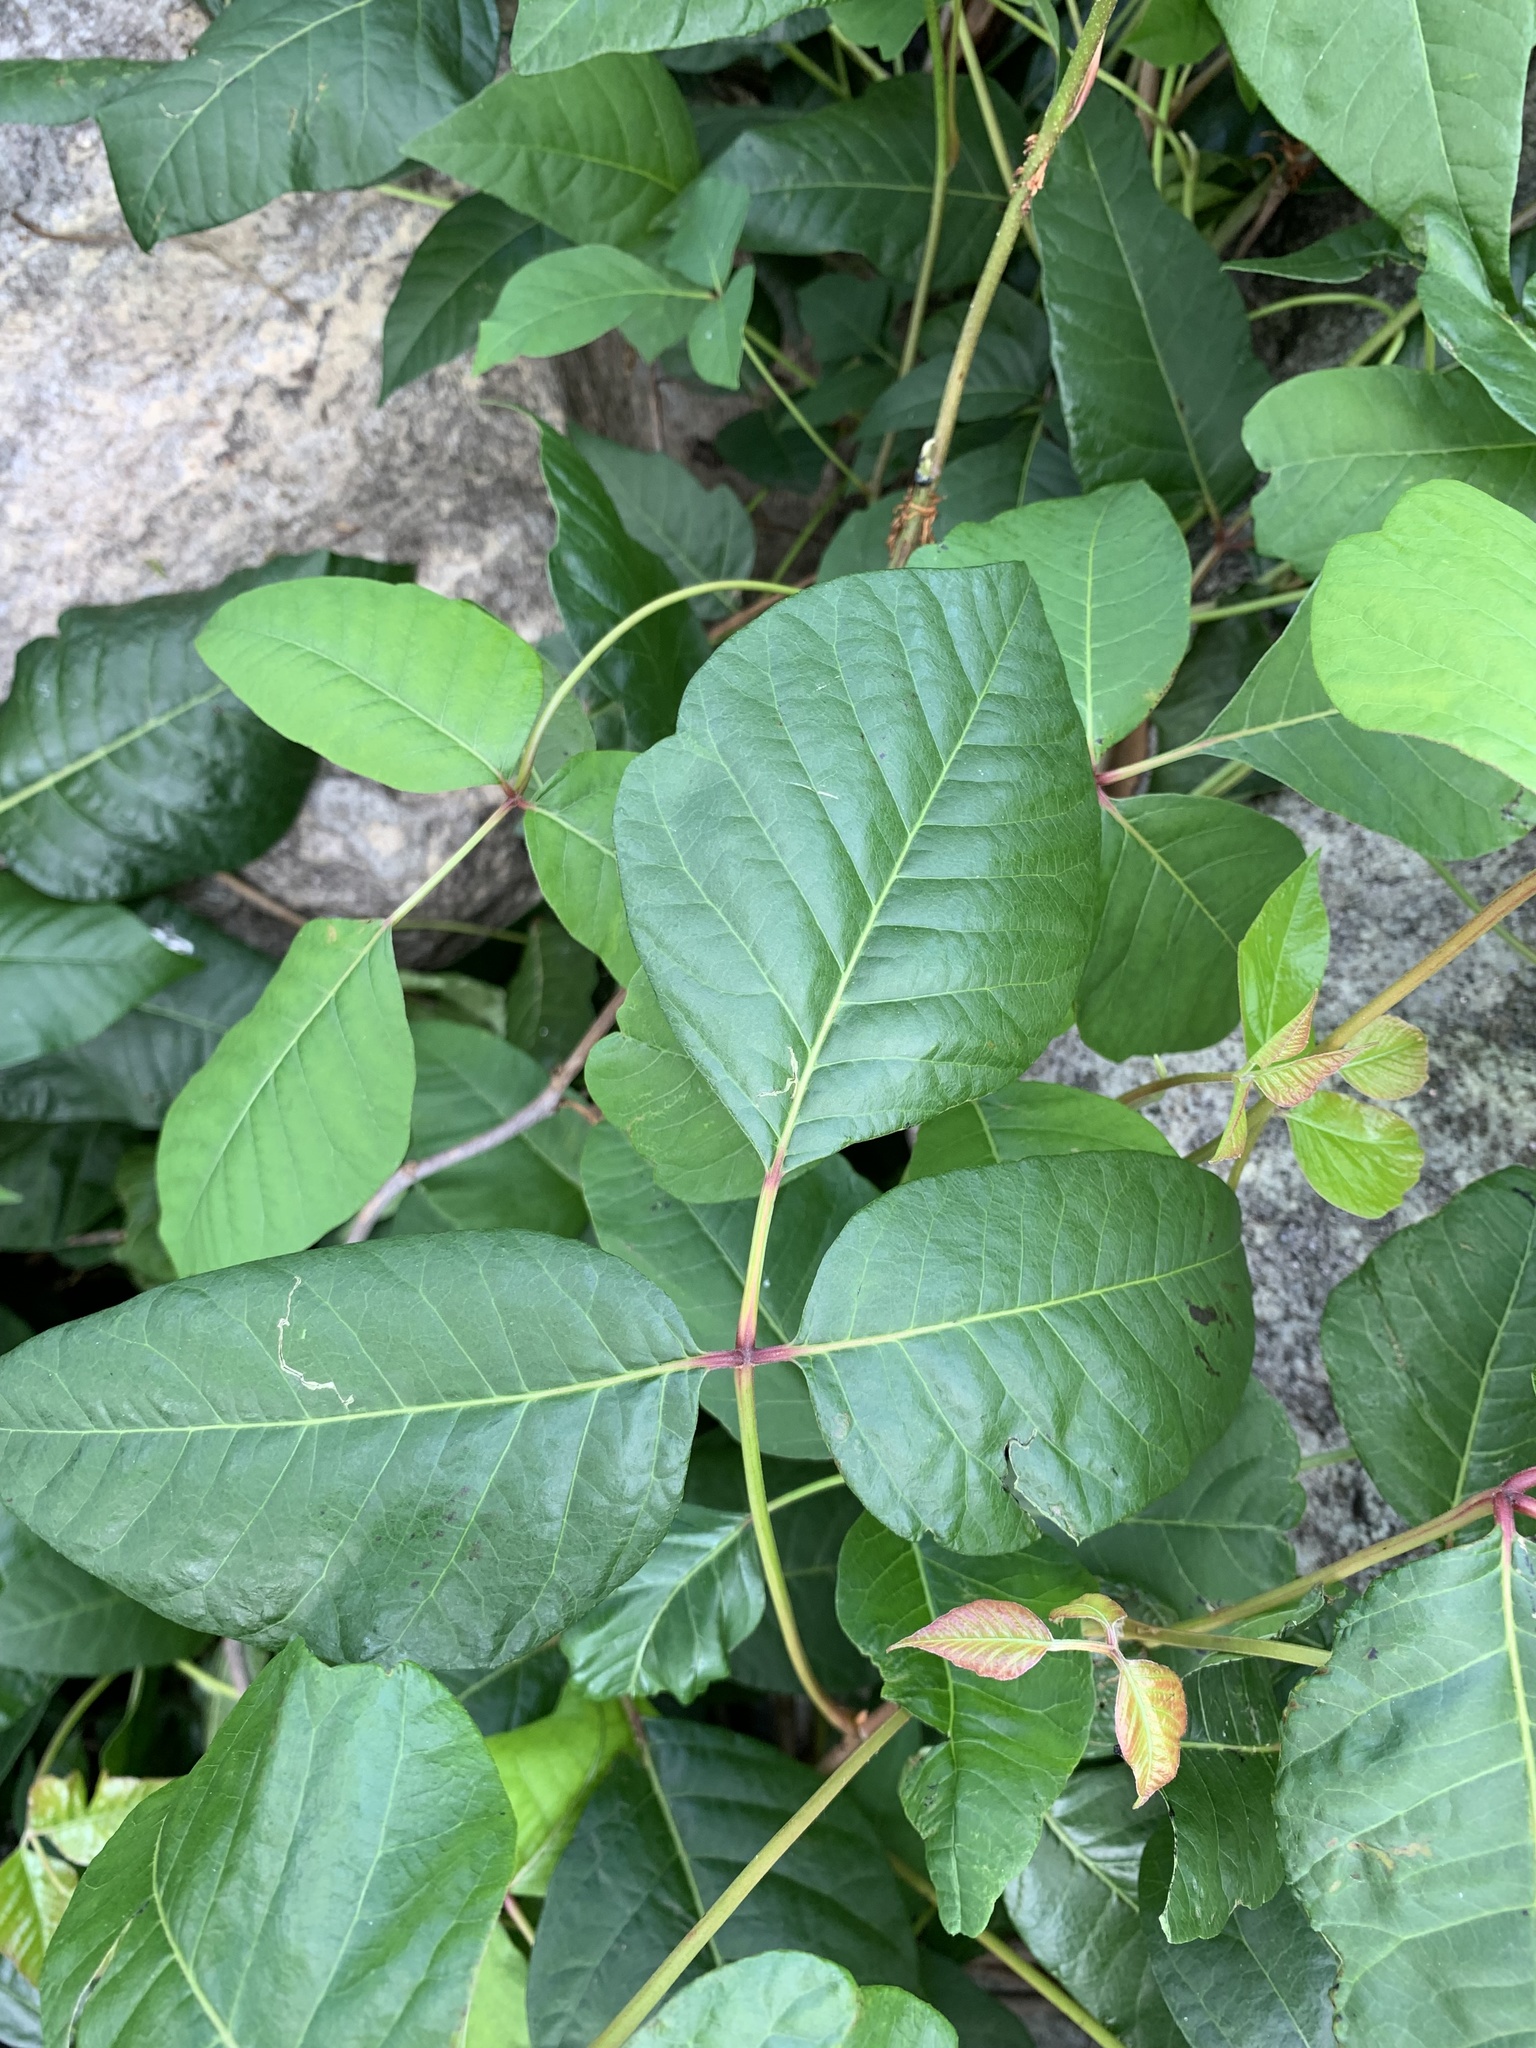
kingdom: Plantae
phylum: Tracheophyta
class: Magnoliopsida
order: Sapindales
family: Anacardiaceae
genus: Toxicodendron
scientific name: Toxicodendron radicans
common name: Poison ivy
